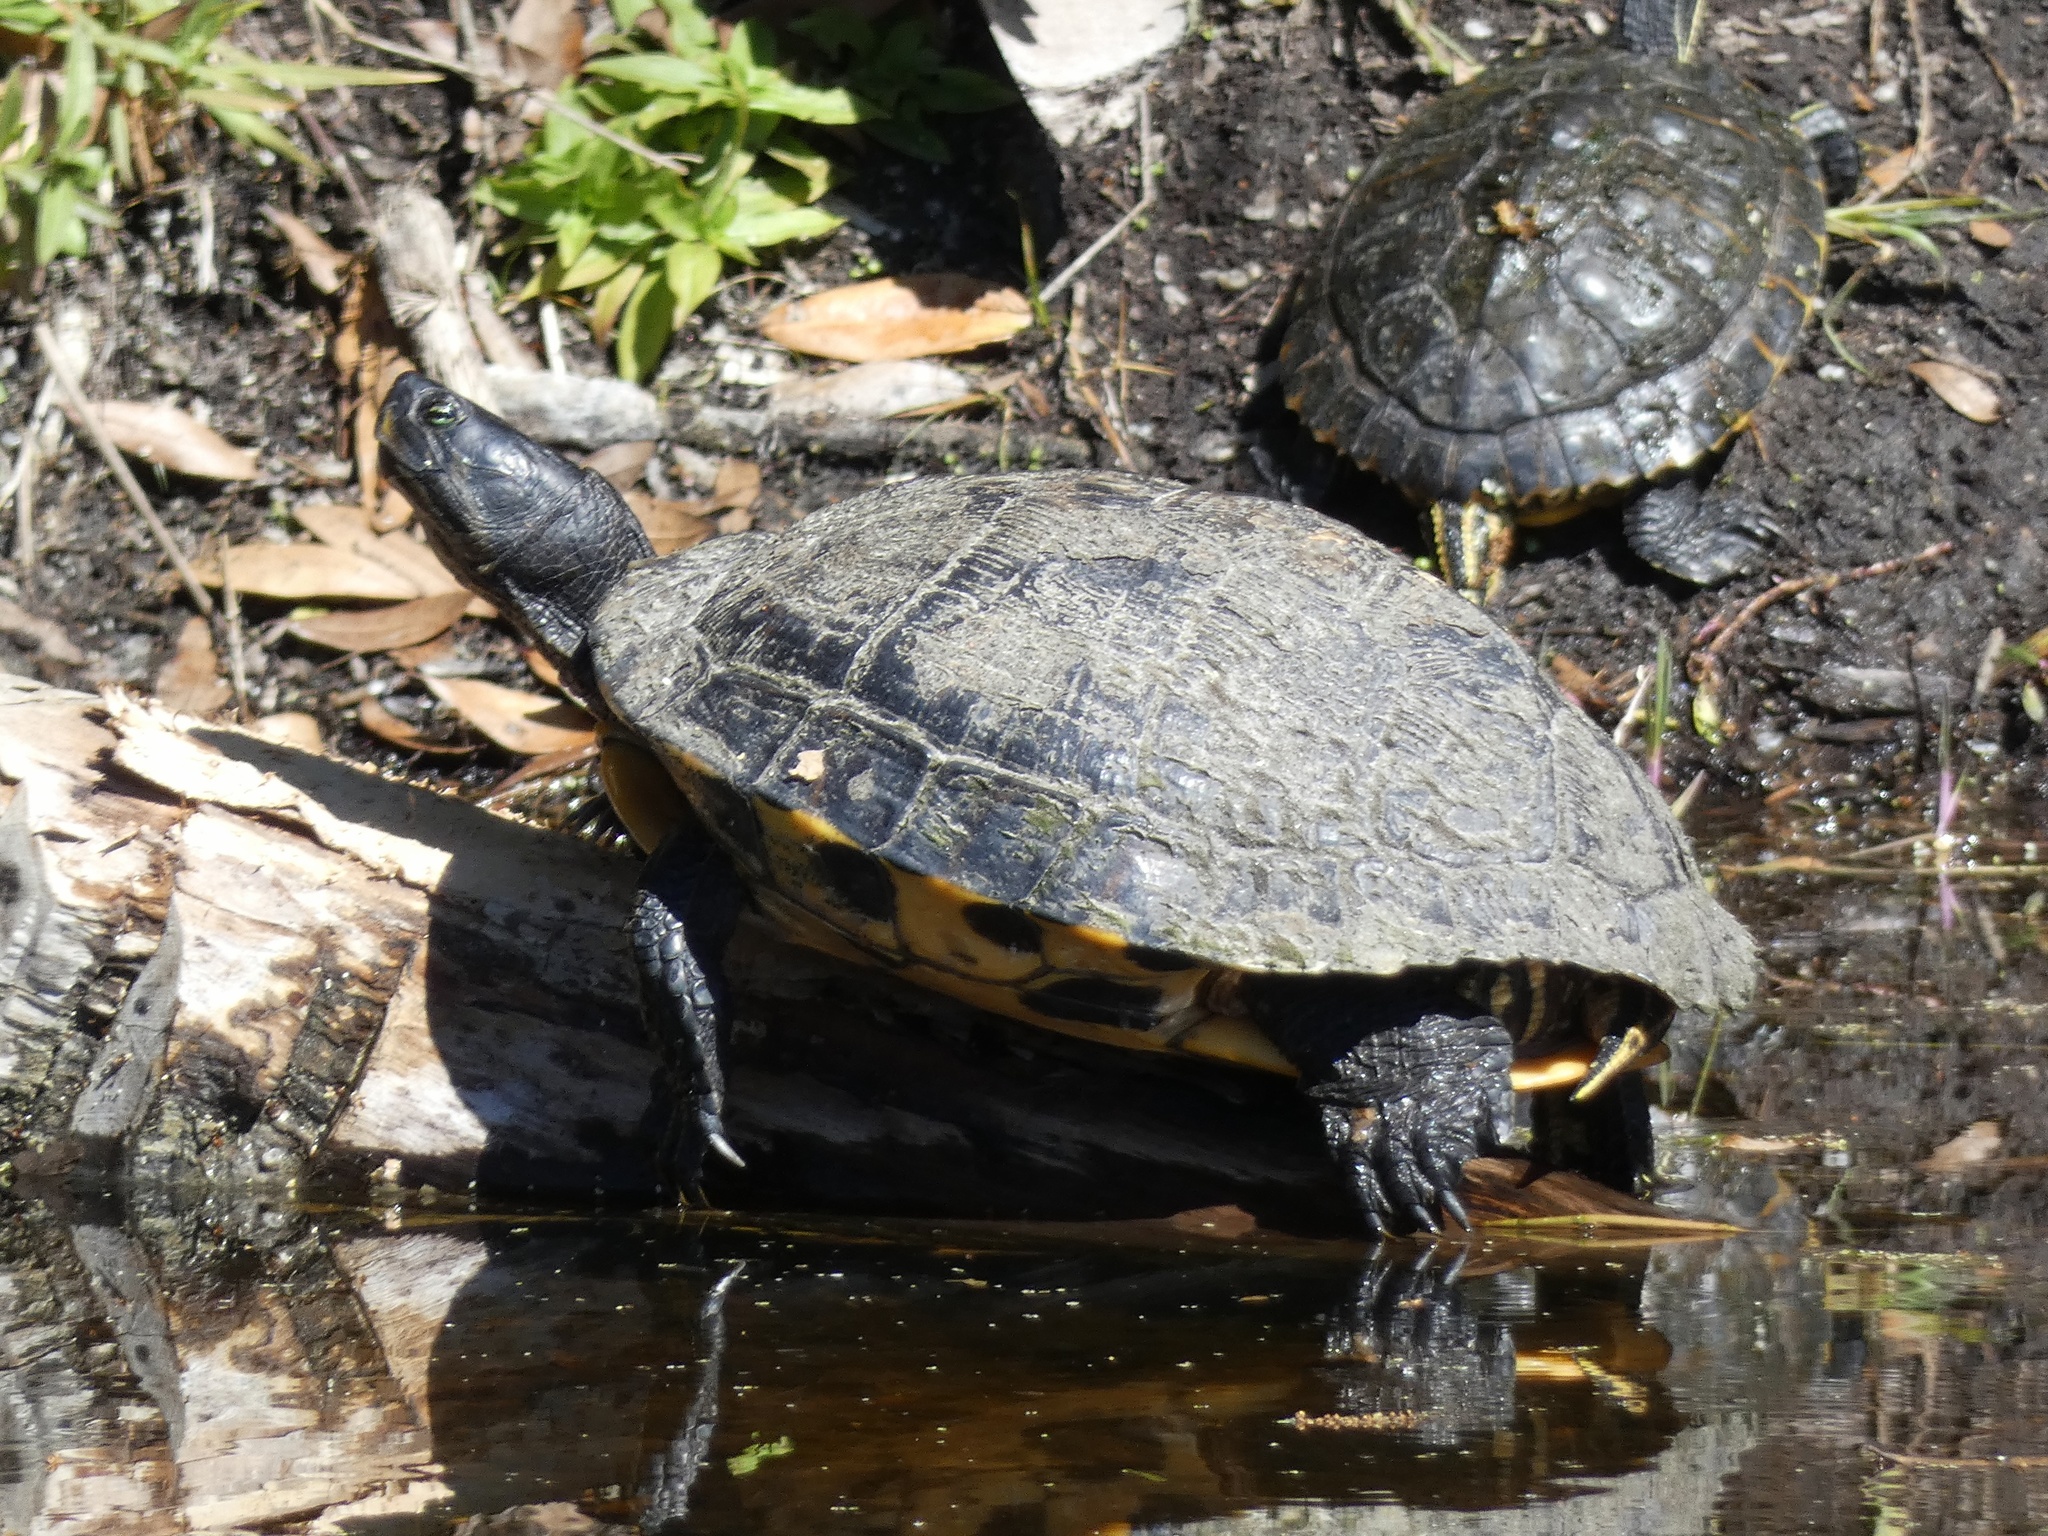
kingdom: Animalia
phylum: Chordata
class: Testudines
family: Emydidae
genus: Trachemys
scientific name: Trachemys scripta
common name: Slider
